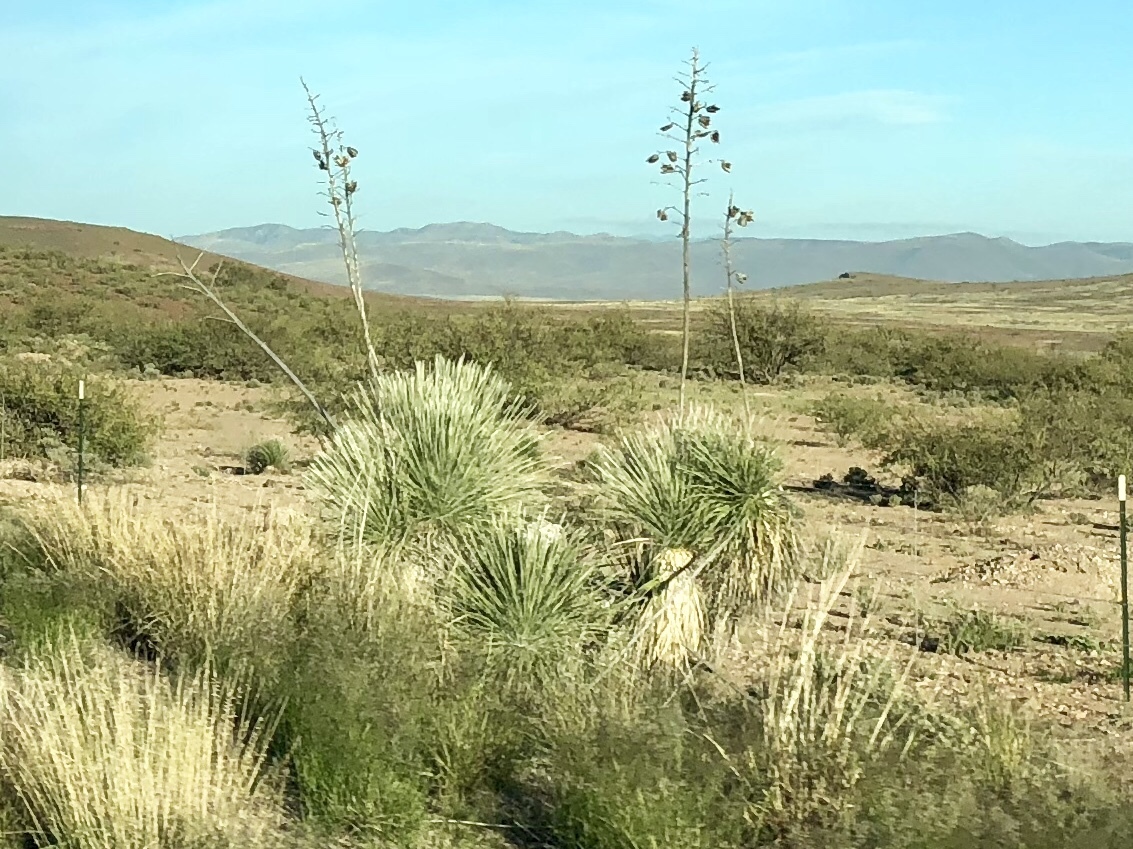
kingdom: Plantae
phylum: Tracheophyta
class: Liliopsida
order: Asparagales
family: Asparagaceae
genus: Yucca
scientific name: Yucca elata
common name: Palmella
